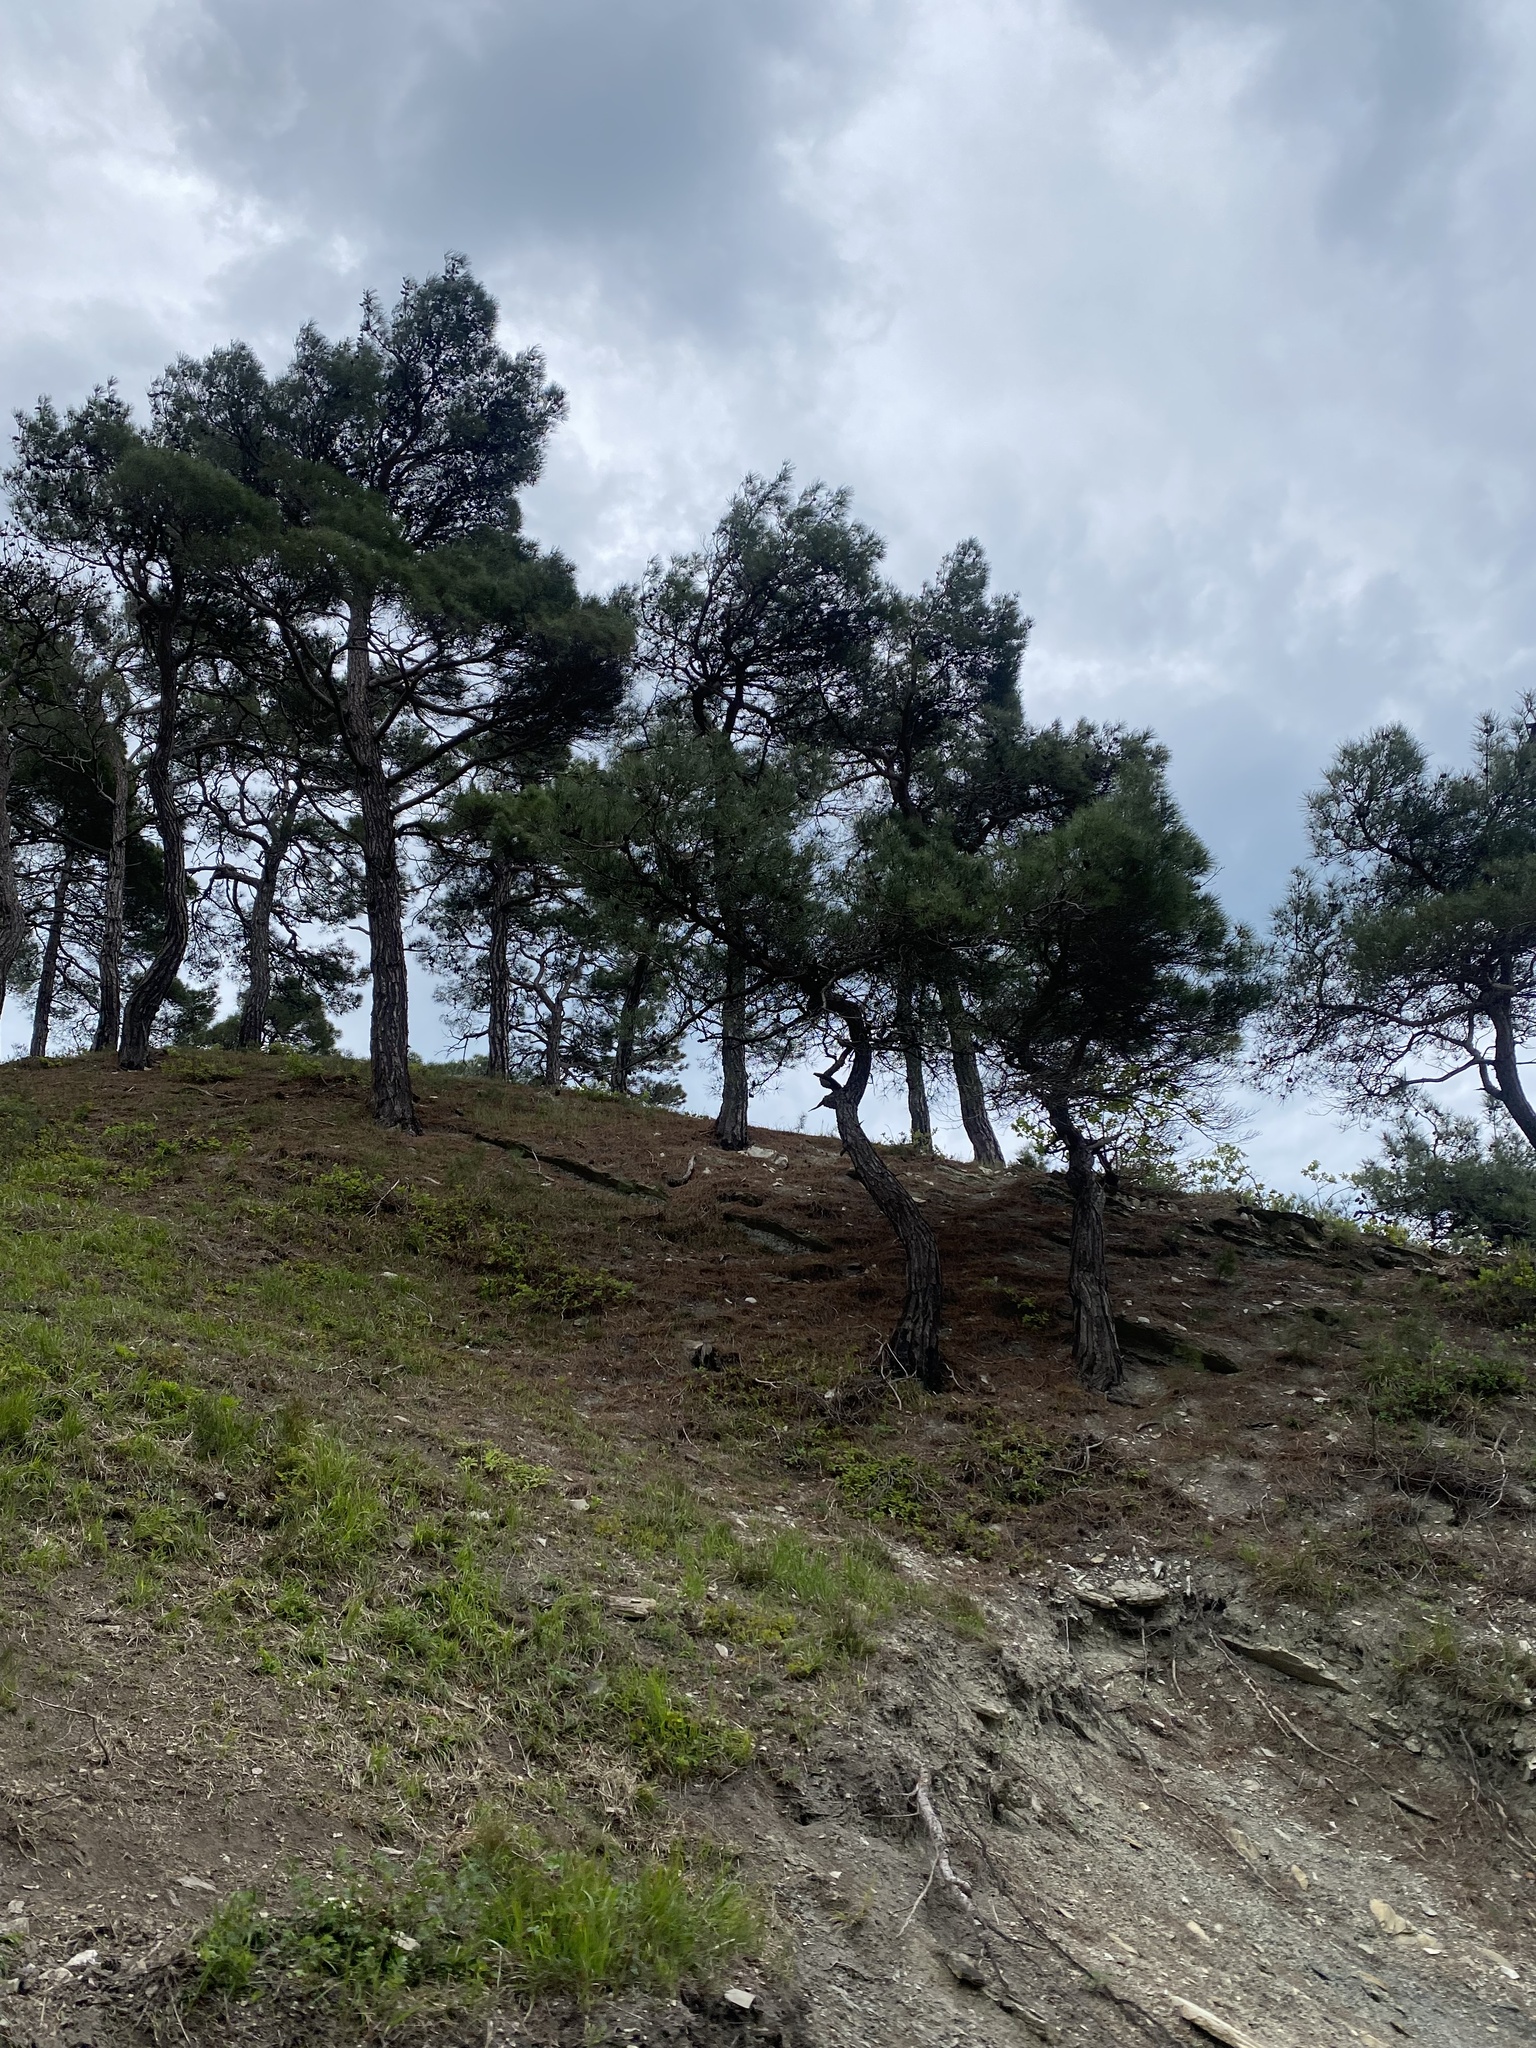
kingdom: Plantae
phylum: Tracheophyta
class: Pinopsida
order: Pinales
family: Pinaceae
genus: Pinus
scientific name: Pinus brutia
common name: Turkish pine
